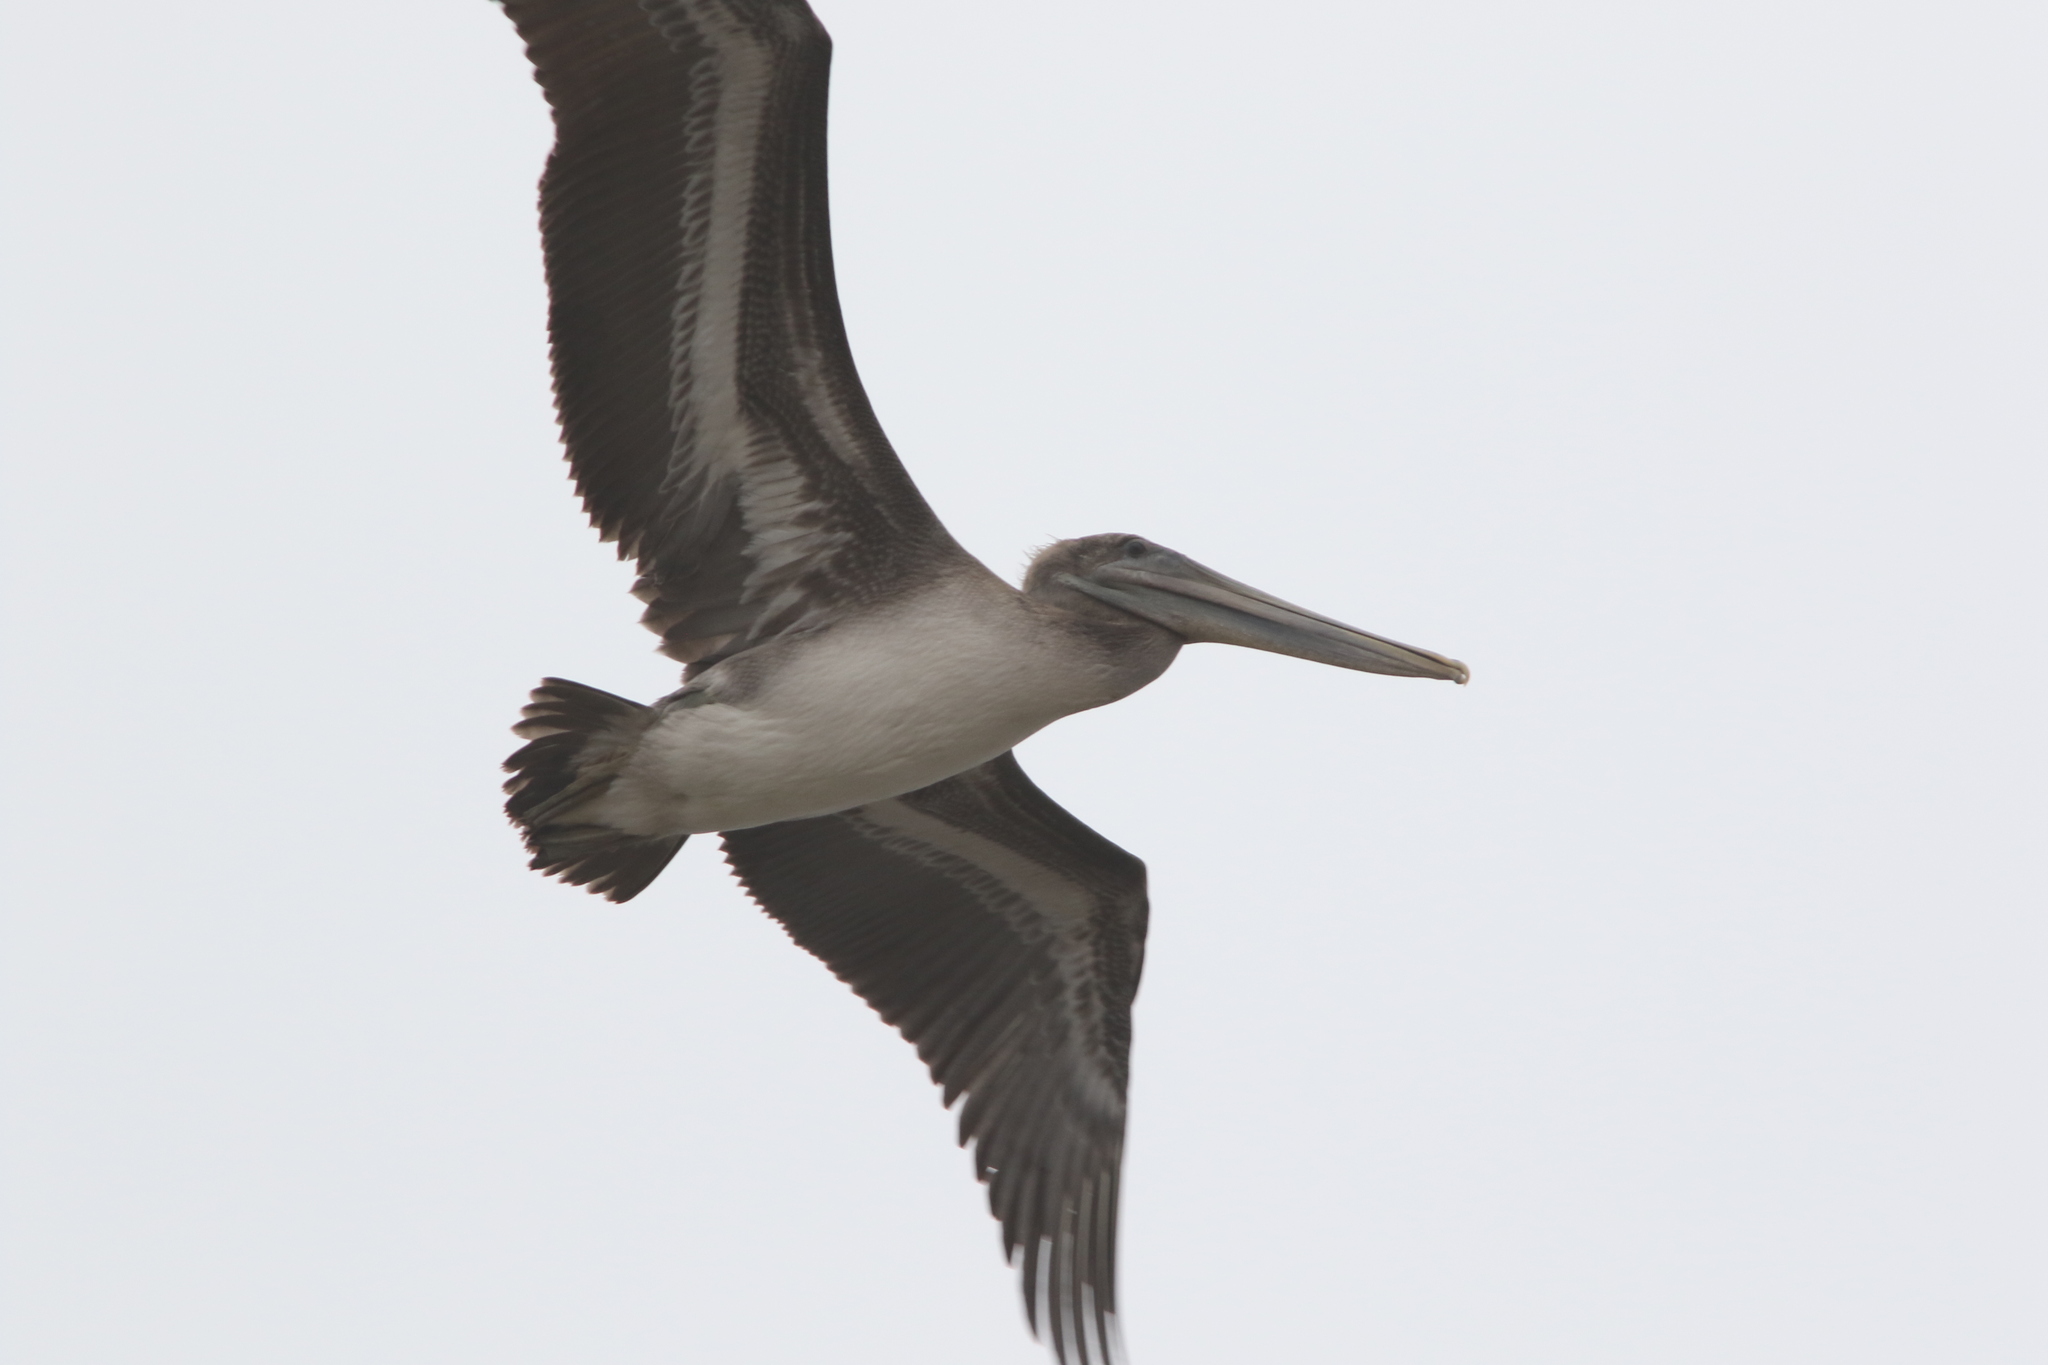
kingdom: Animalia
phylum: Chordata
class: Aves
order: Pelecaniformes
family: Pelecanidae
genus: Pelecanus
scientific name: Pelecanus occidentalis
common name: Brown pelican
